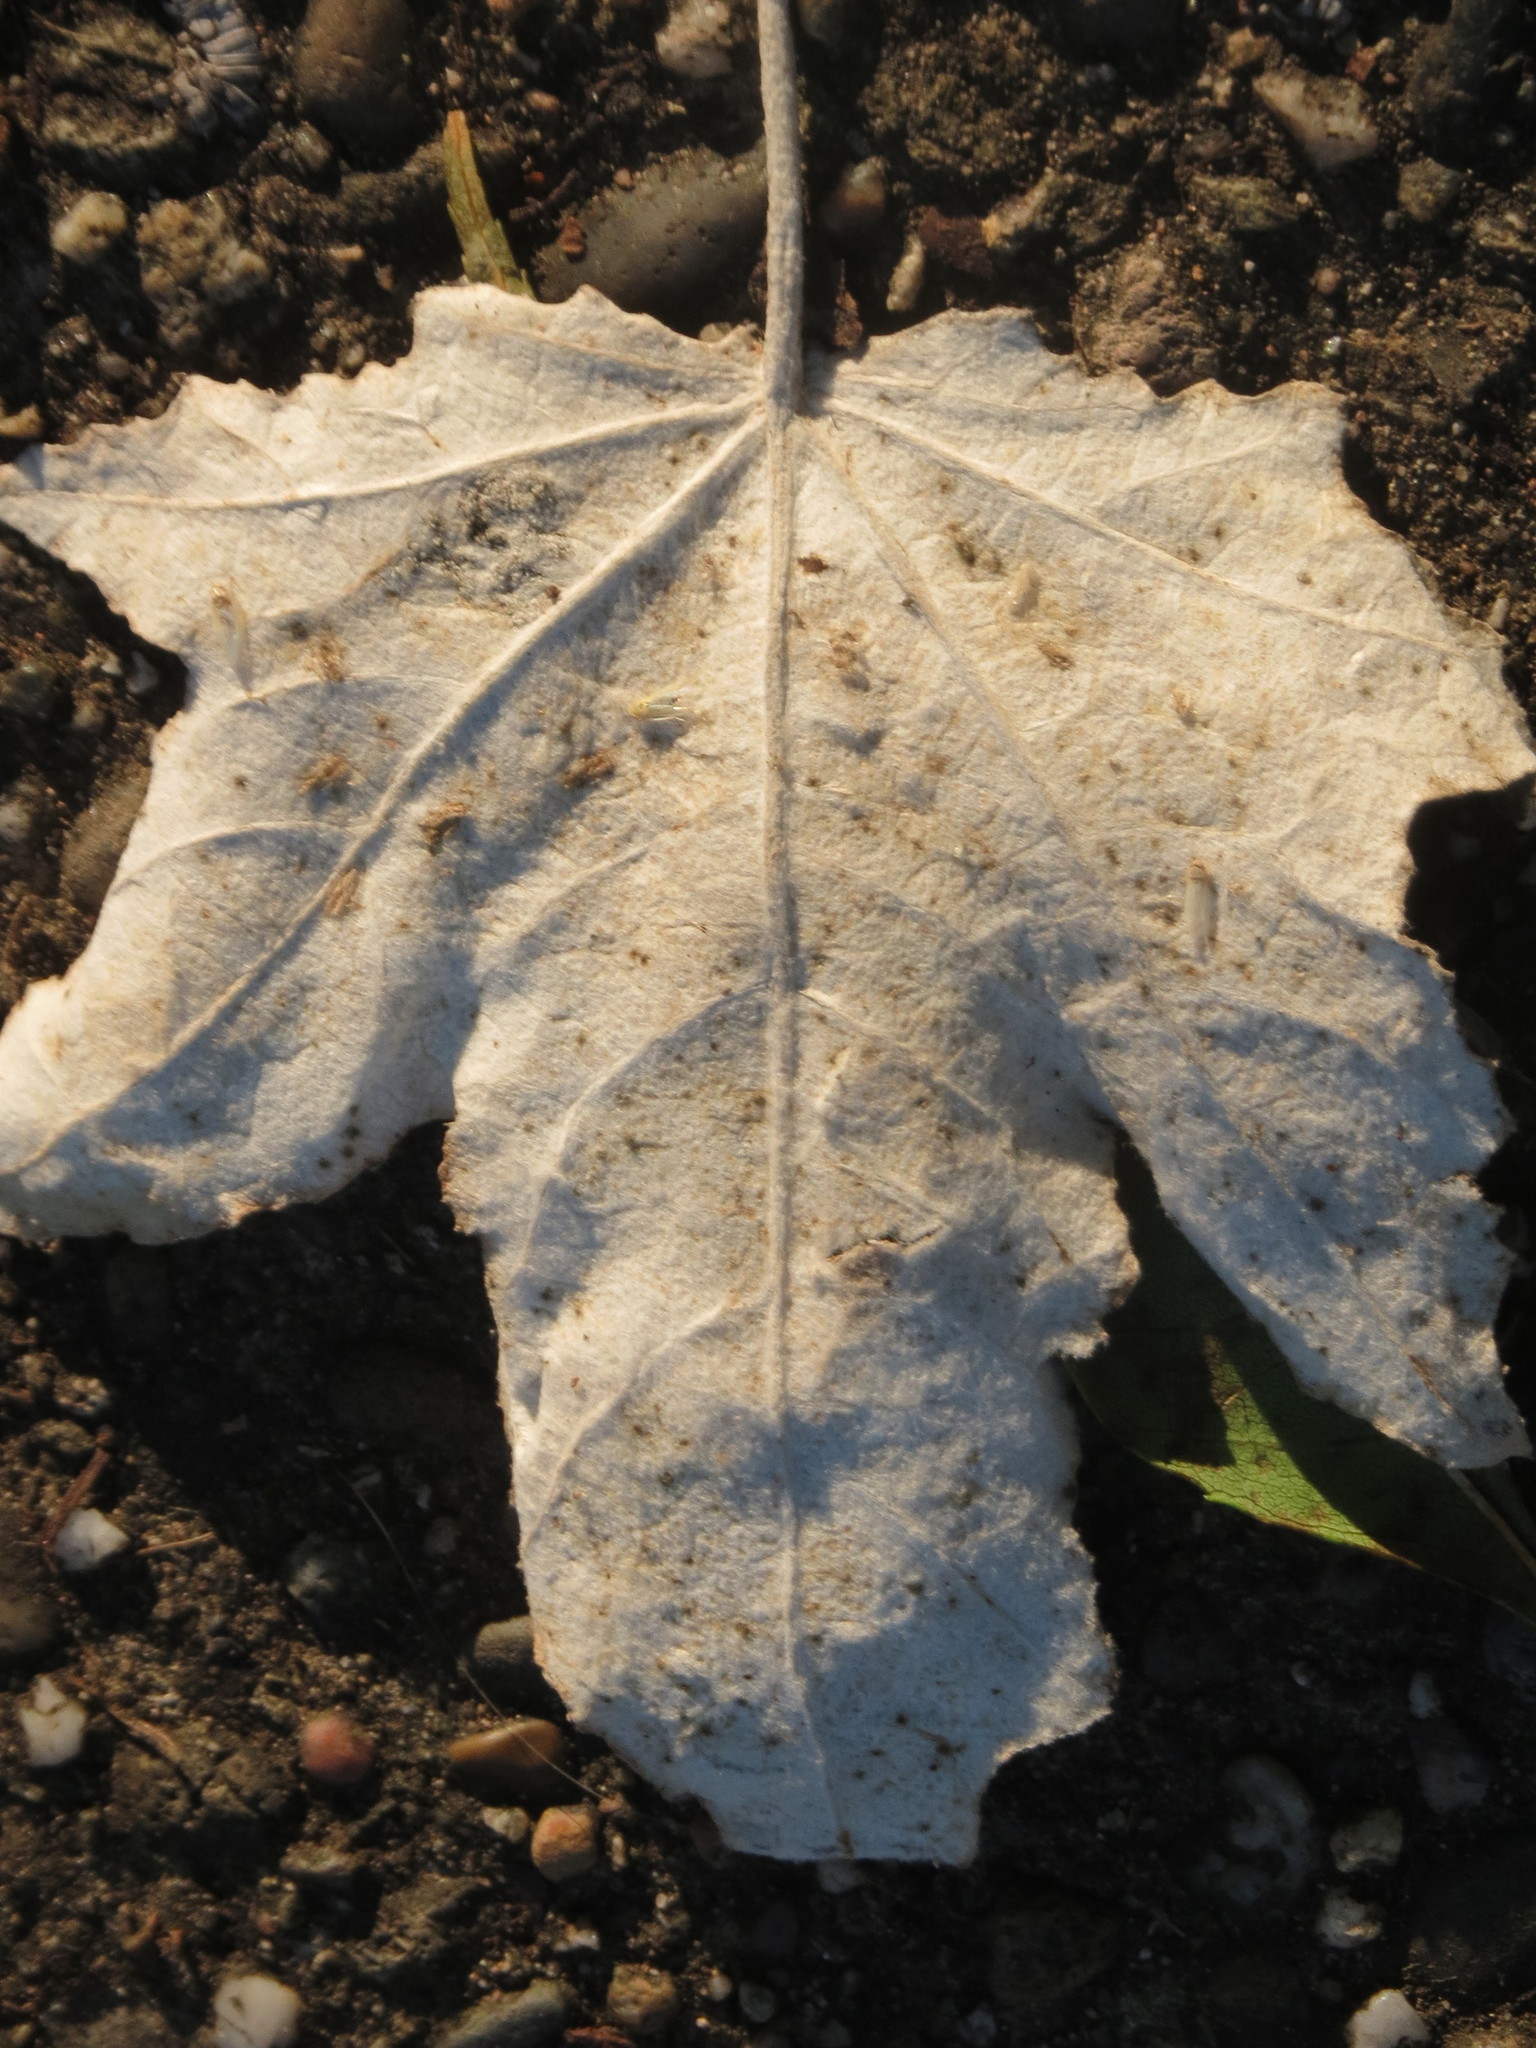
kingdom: Plantae
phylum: Tracheophyta
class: Magnoliopsida
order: Malpighiales
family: Salicaceae
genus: Populus
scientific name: Populus alba
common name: White poplar
